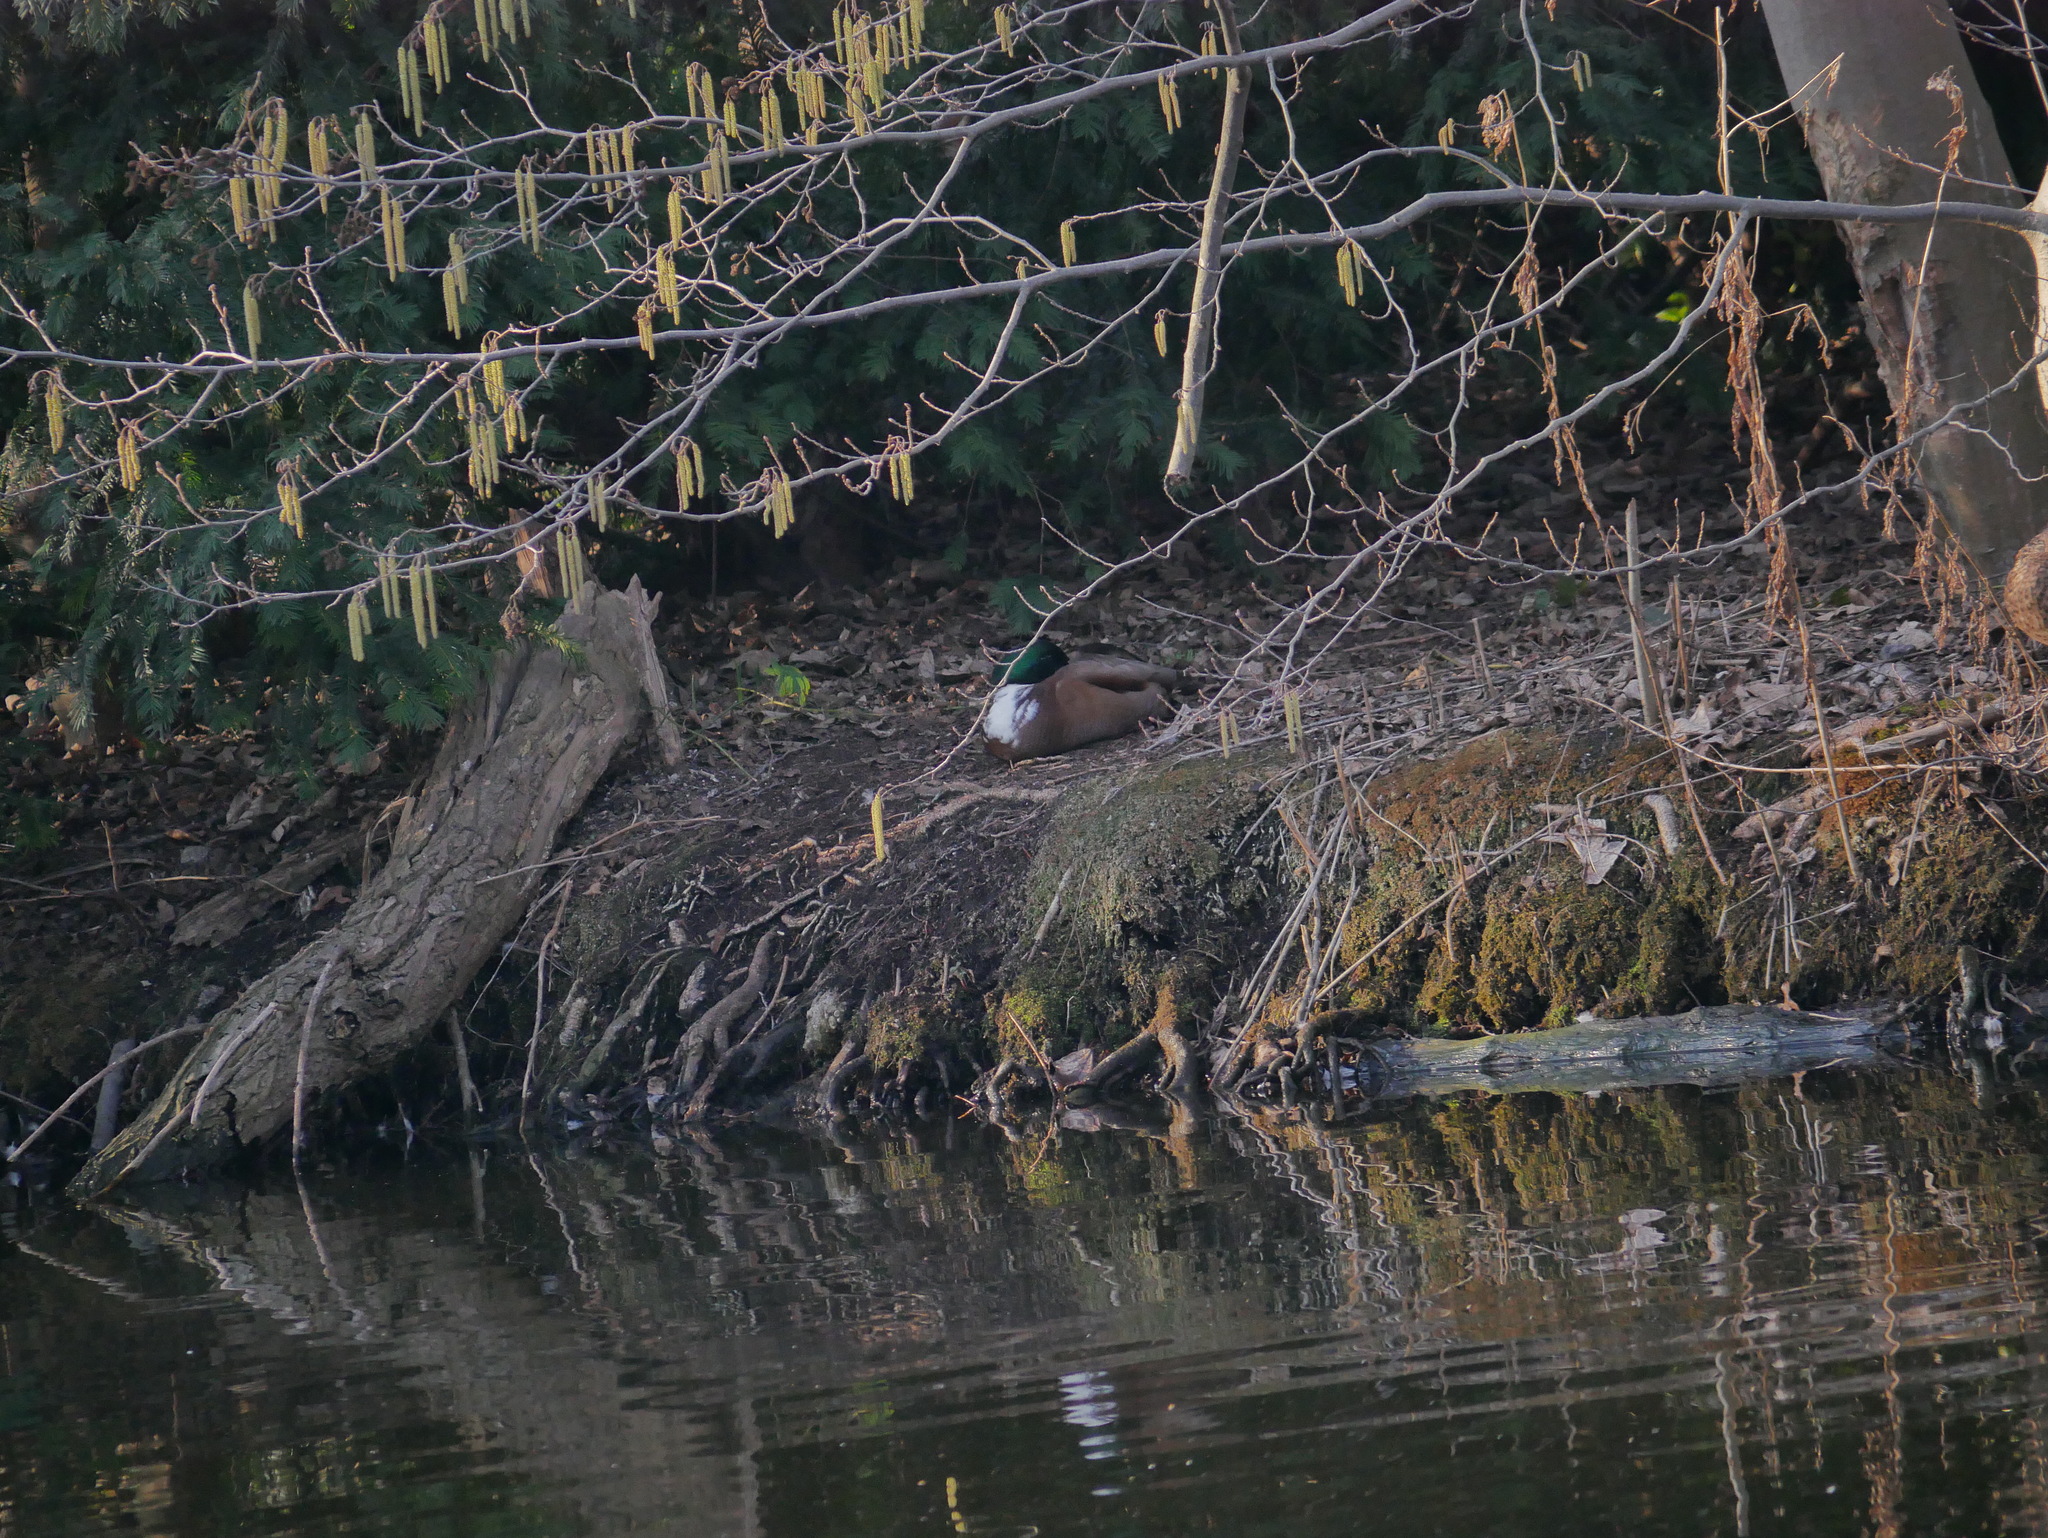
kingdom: Animalia
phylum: Chordata
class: Aves
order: Anseriformes
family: Anatidae
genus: Anas
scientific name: Anas platyrhynchos
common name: Mallard
